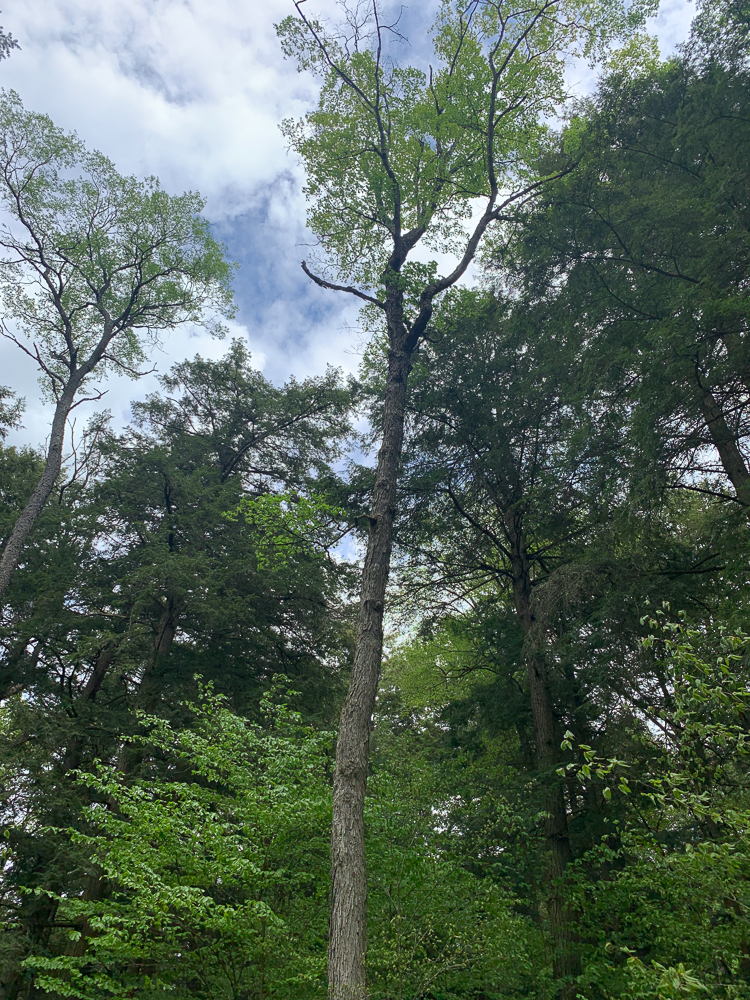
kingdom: Plantae
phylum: Tracheophyta
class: Magnoliopsida
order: Sapindales
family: Sapindaceae
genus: Acer
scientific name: Acer saccharum
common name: Sugar maple
